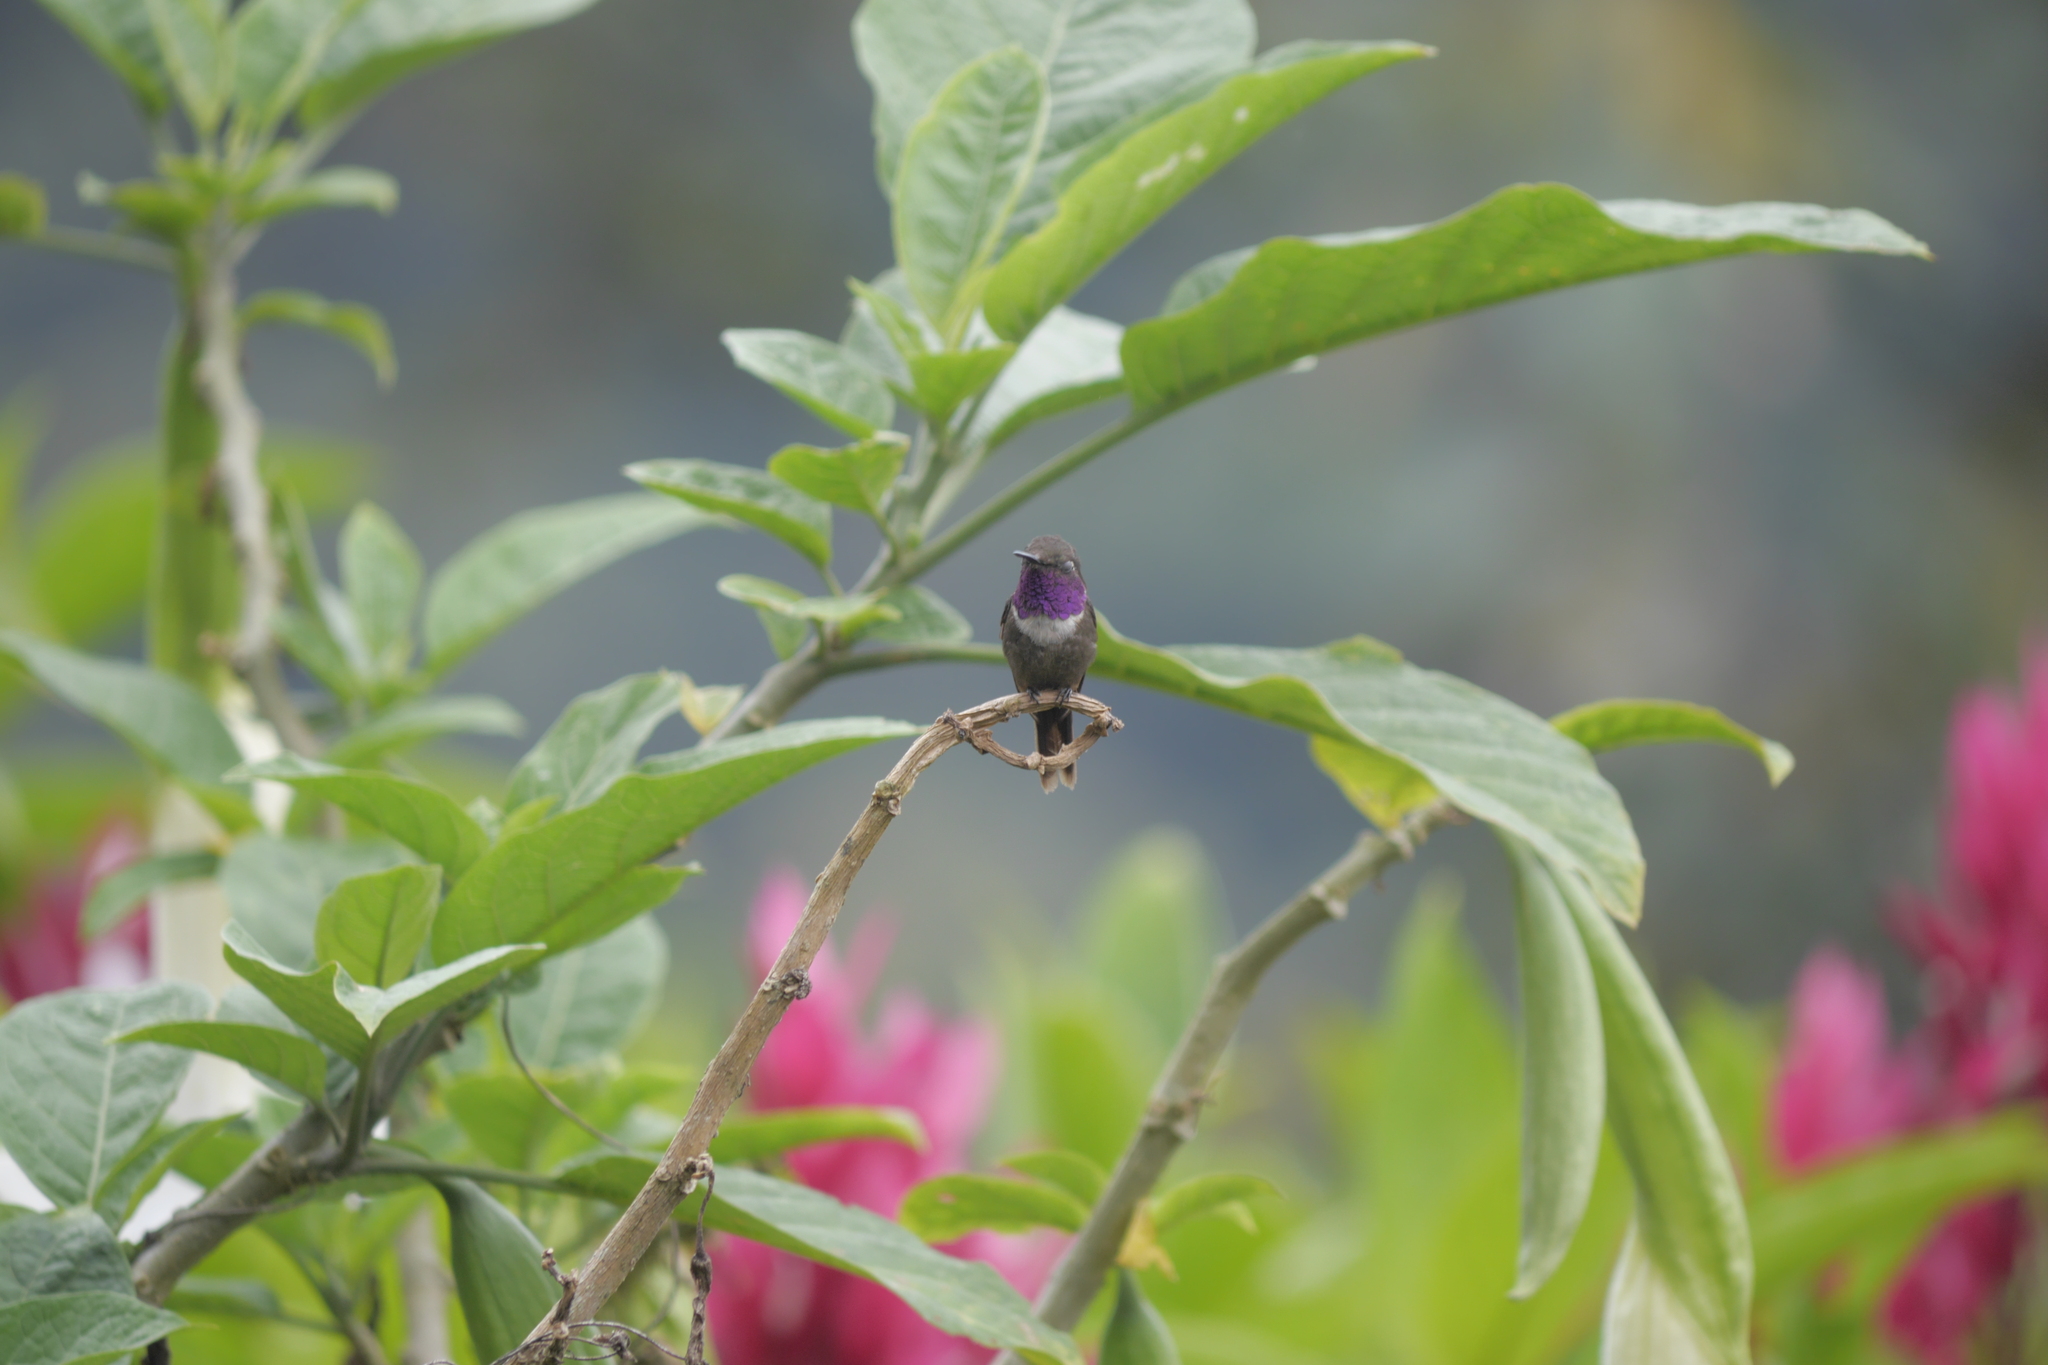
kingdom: Animalia
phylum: Chordata
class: Aves
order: Apodiformes
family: Trochilidae
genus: Calliphlox
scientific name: Calliphlox mitchellii
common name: Purple-throated woodstar
